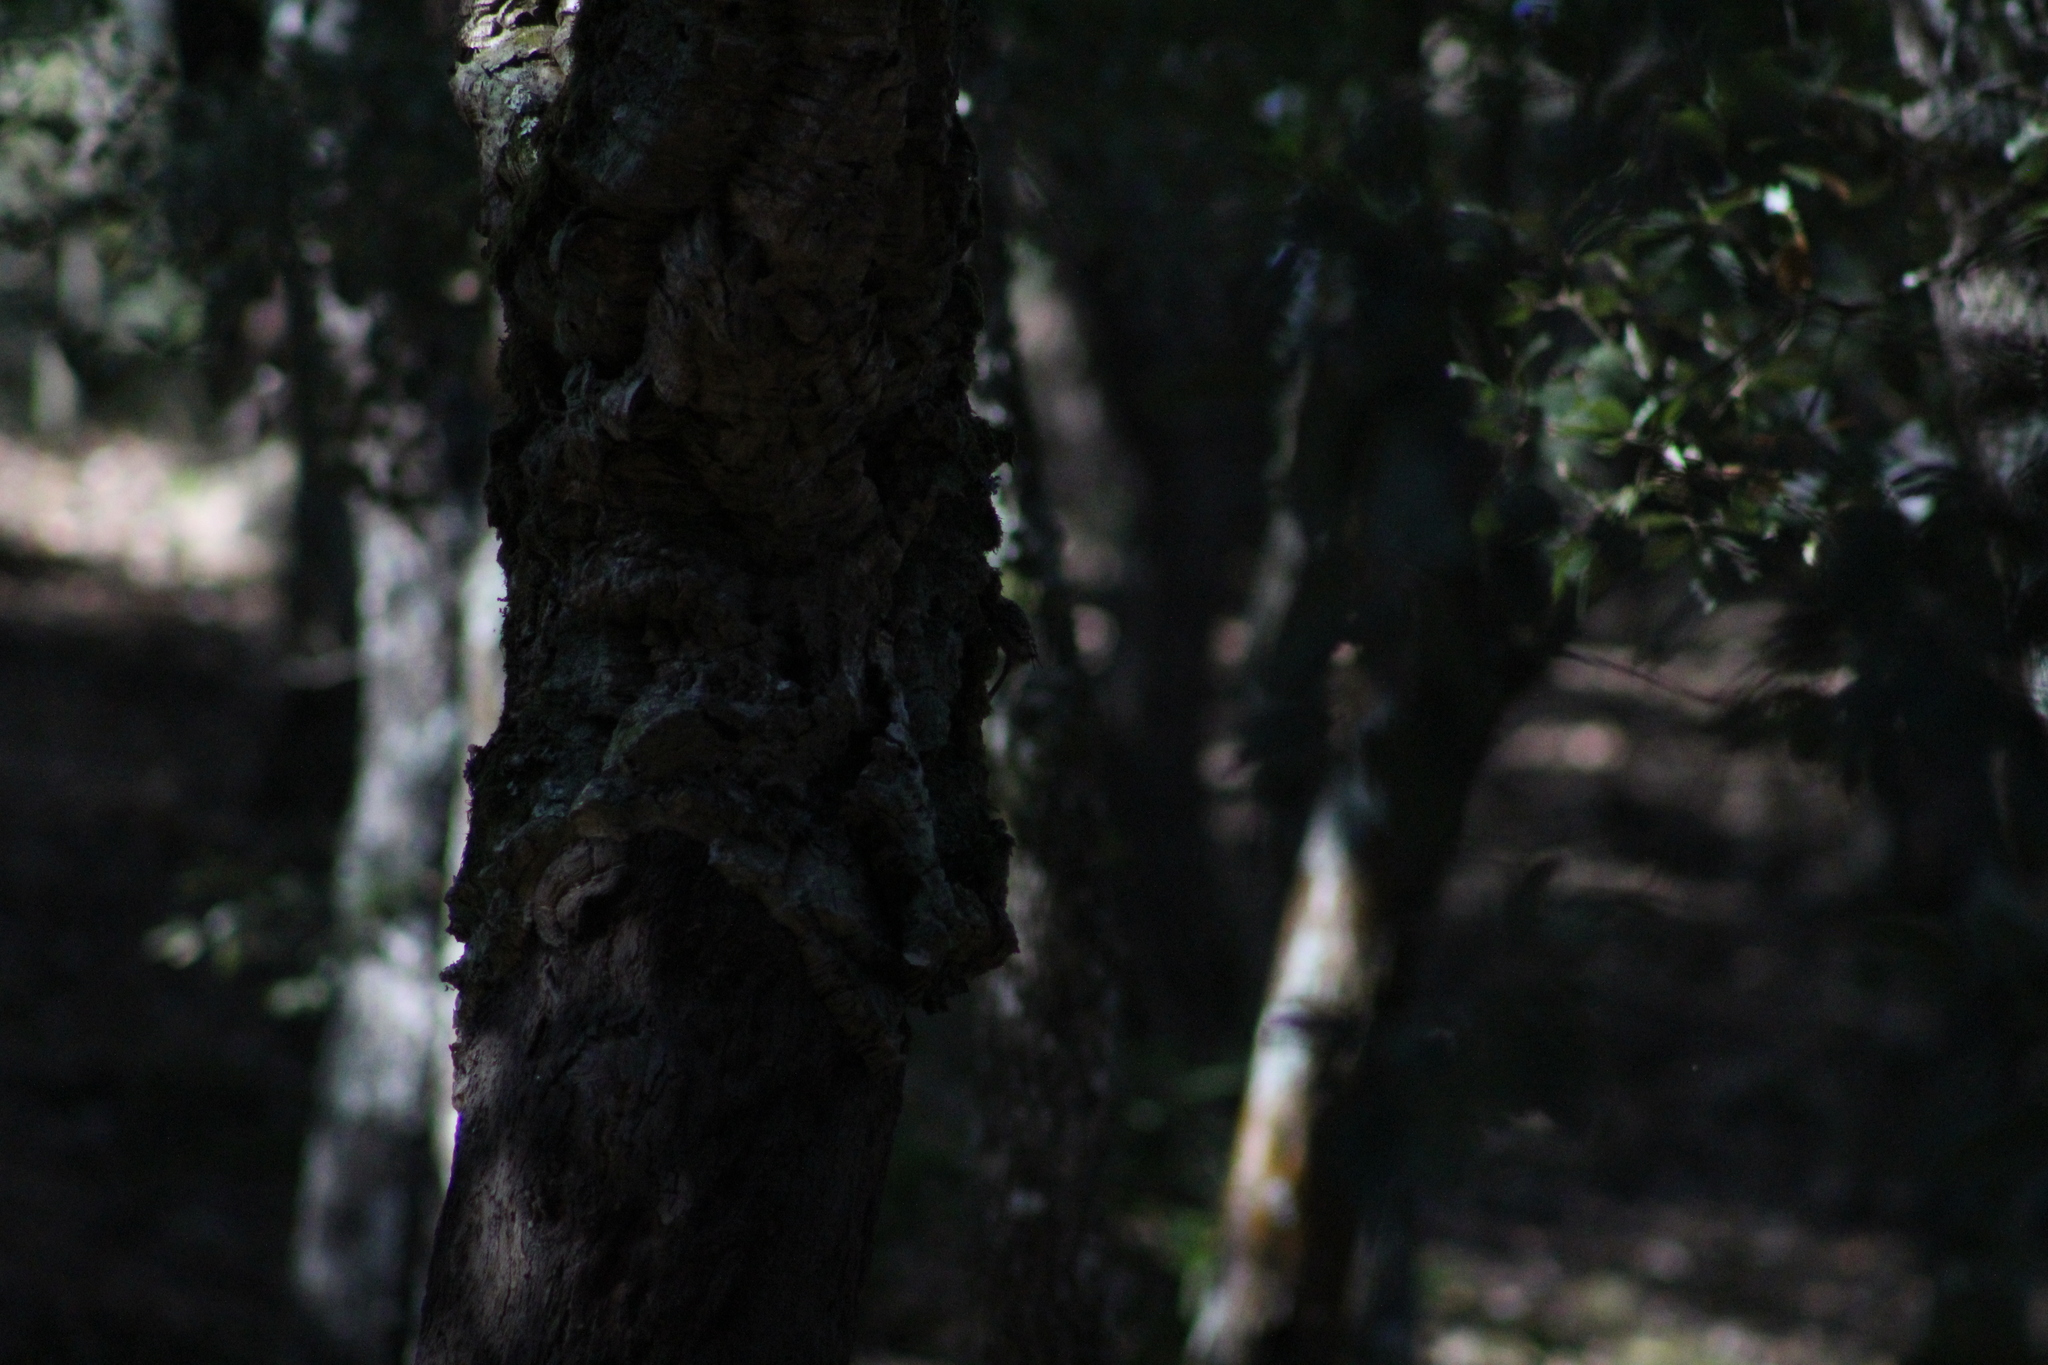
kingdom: Animalia
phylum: Chordata
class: Aves
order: Passeriformes
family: Certhiidae
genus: Certhia
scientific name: Certhia brachydactyla
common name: Short-toed treecreeper
